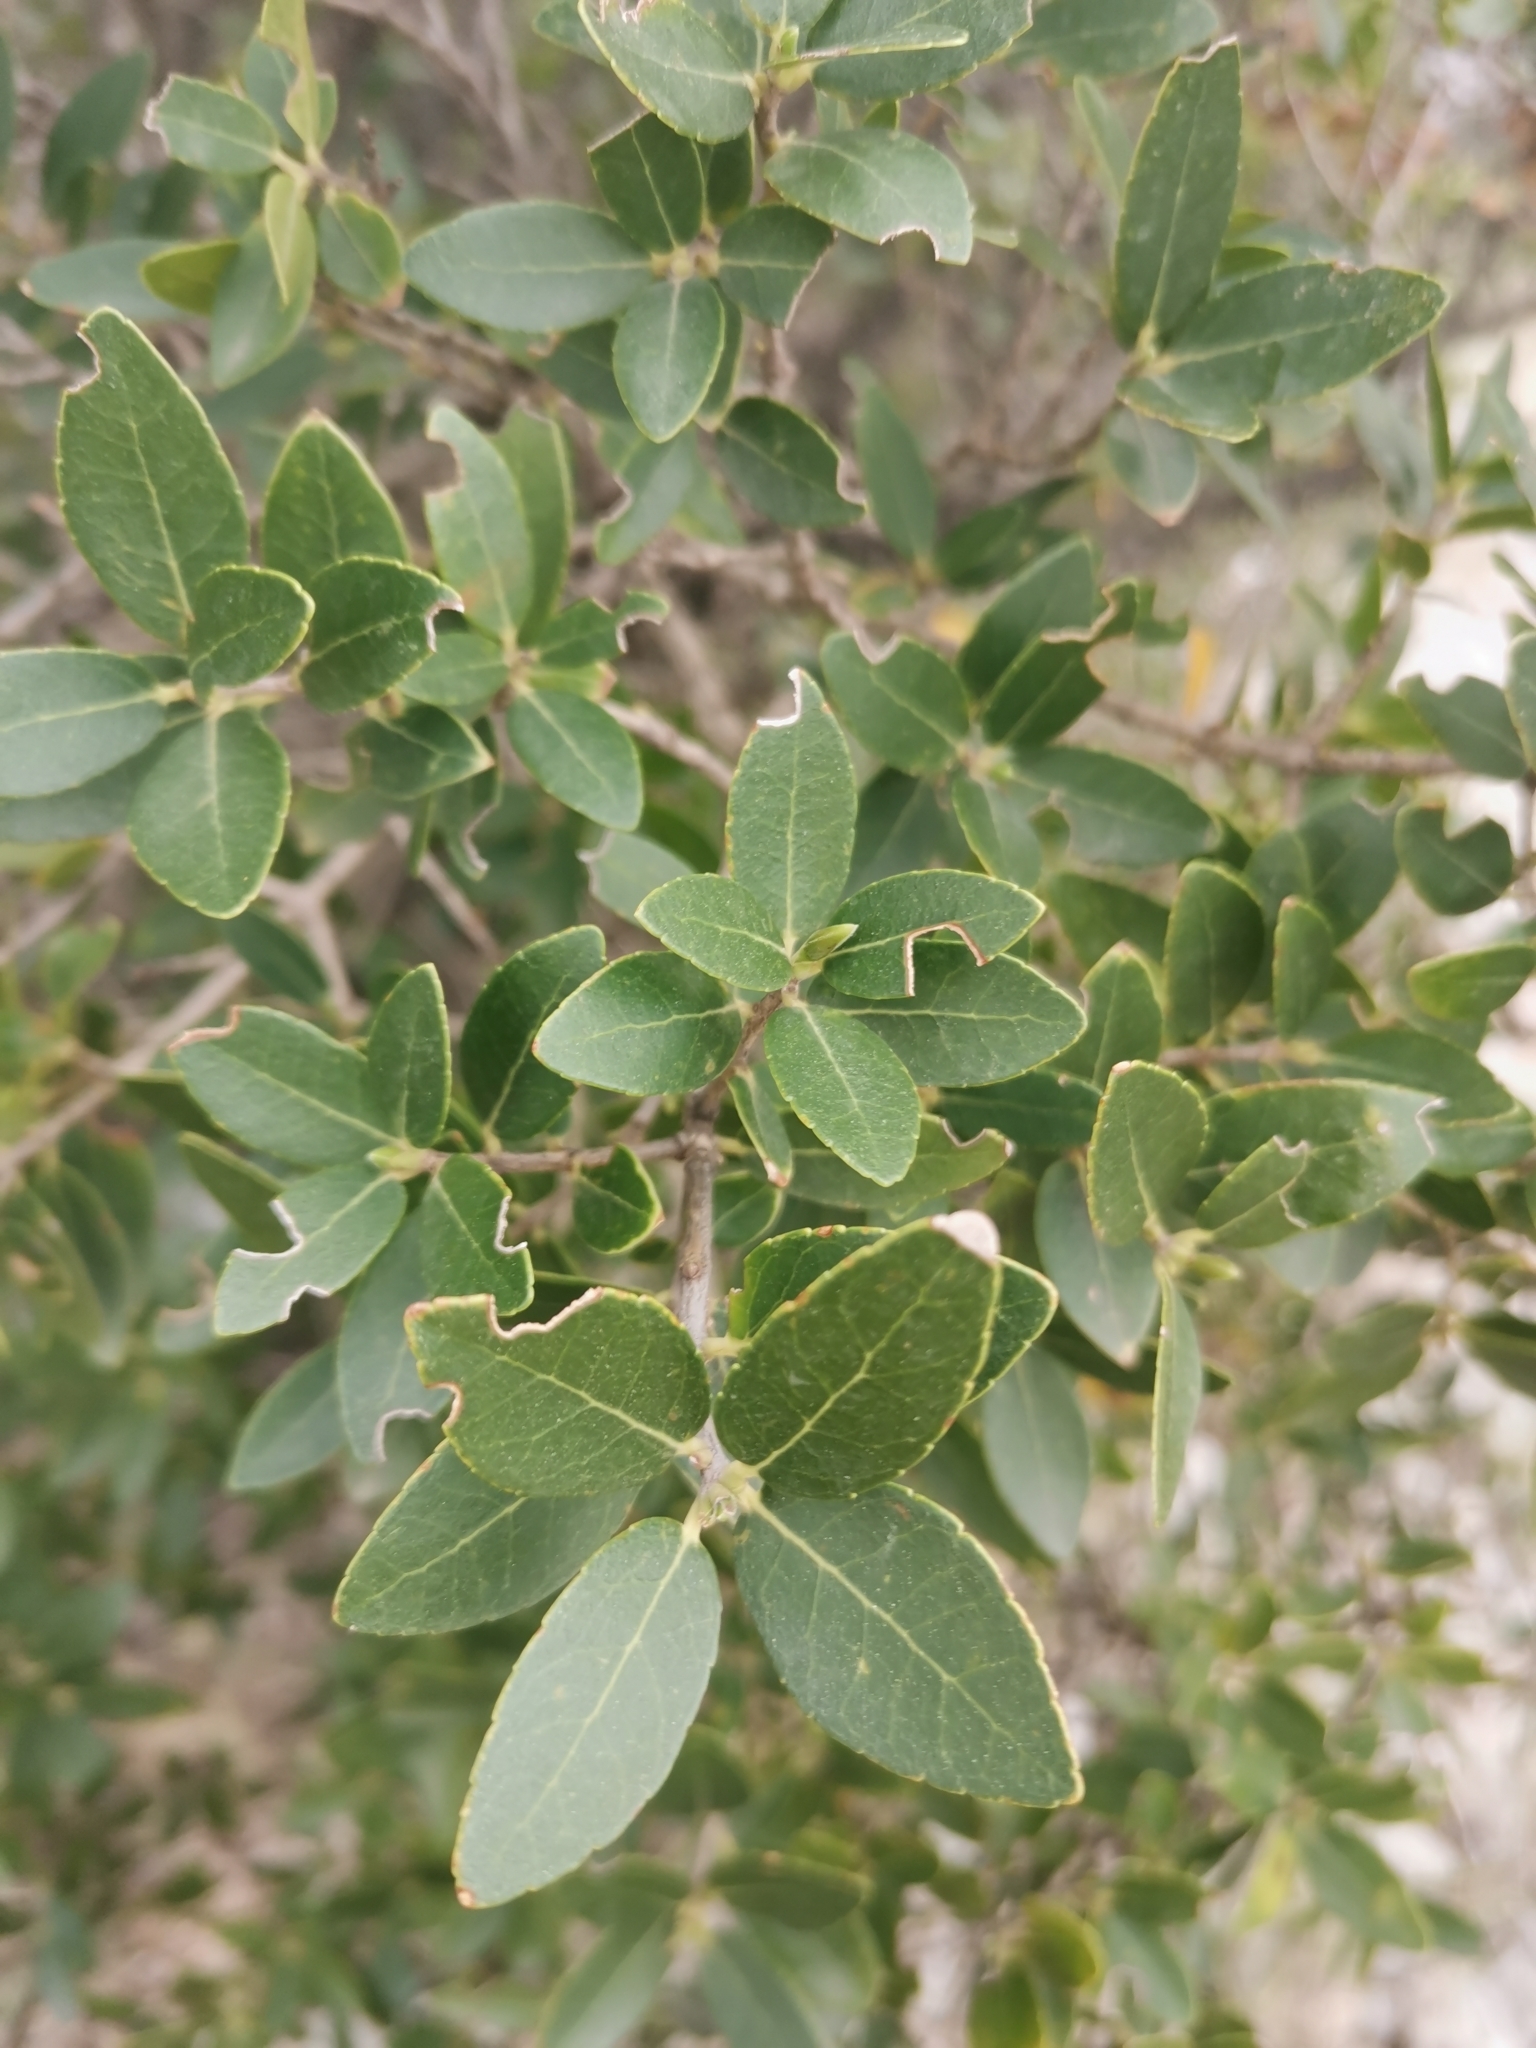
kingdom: Plantae
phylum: Tracheophyta
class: Magnoliopsida
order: Lamiales
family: Oleaceae
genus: Phillyrea
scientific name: Phillyrea latifolia
